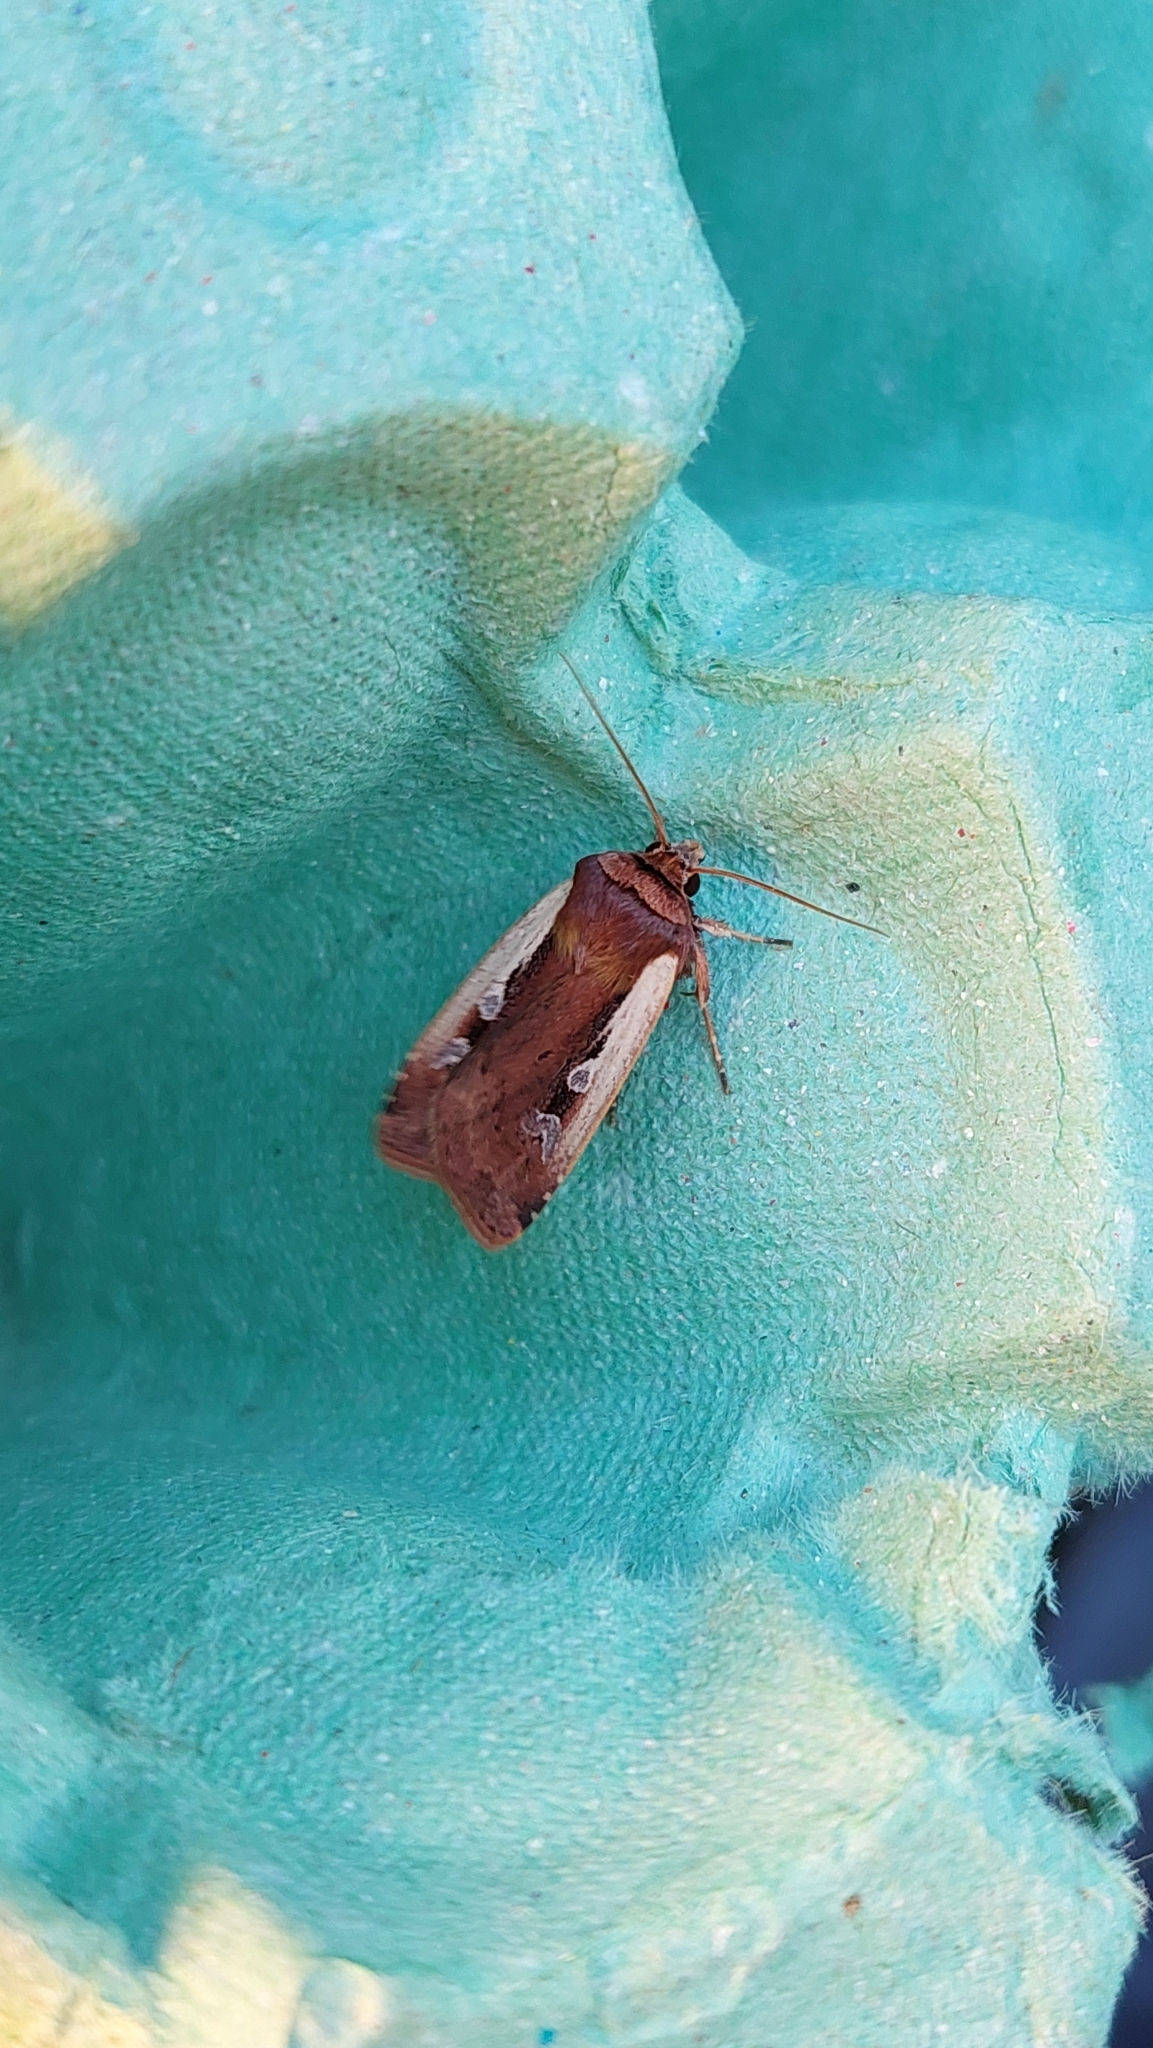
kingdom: Animalia
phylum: Arthropoda
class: Insecta
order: Lepidoptera
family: Noctuidae
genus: Ochropleura
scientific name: Ochropleura plecta
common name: Flame shoulder
